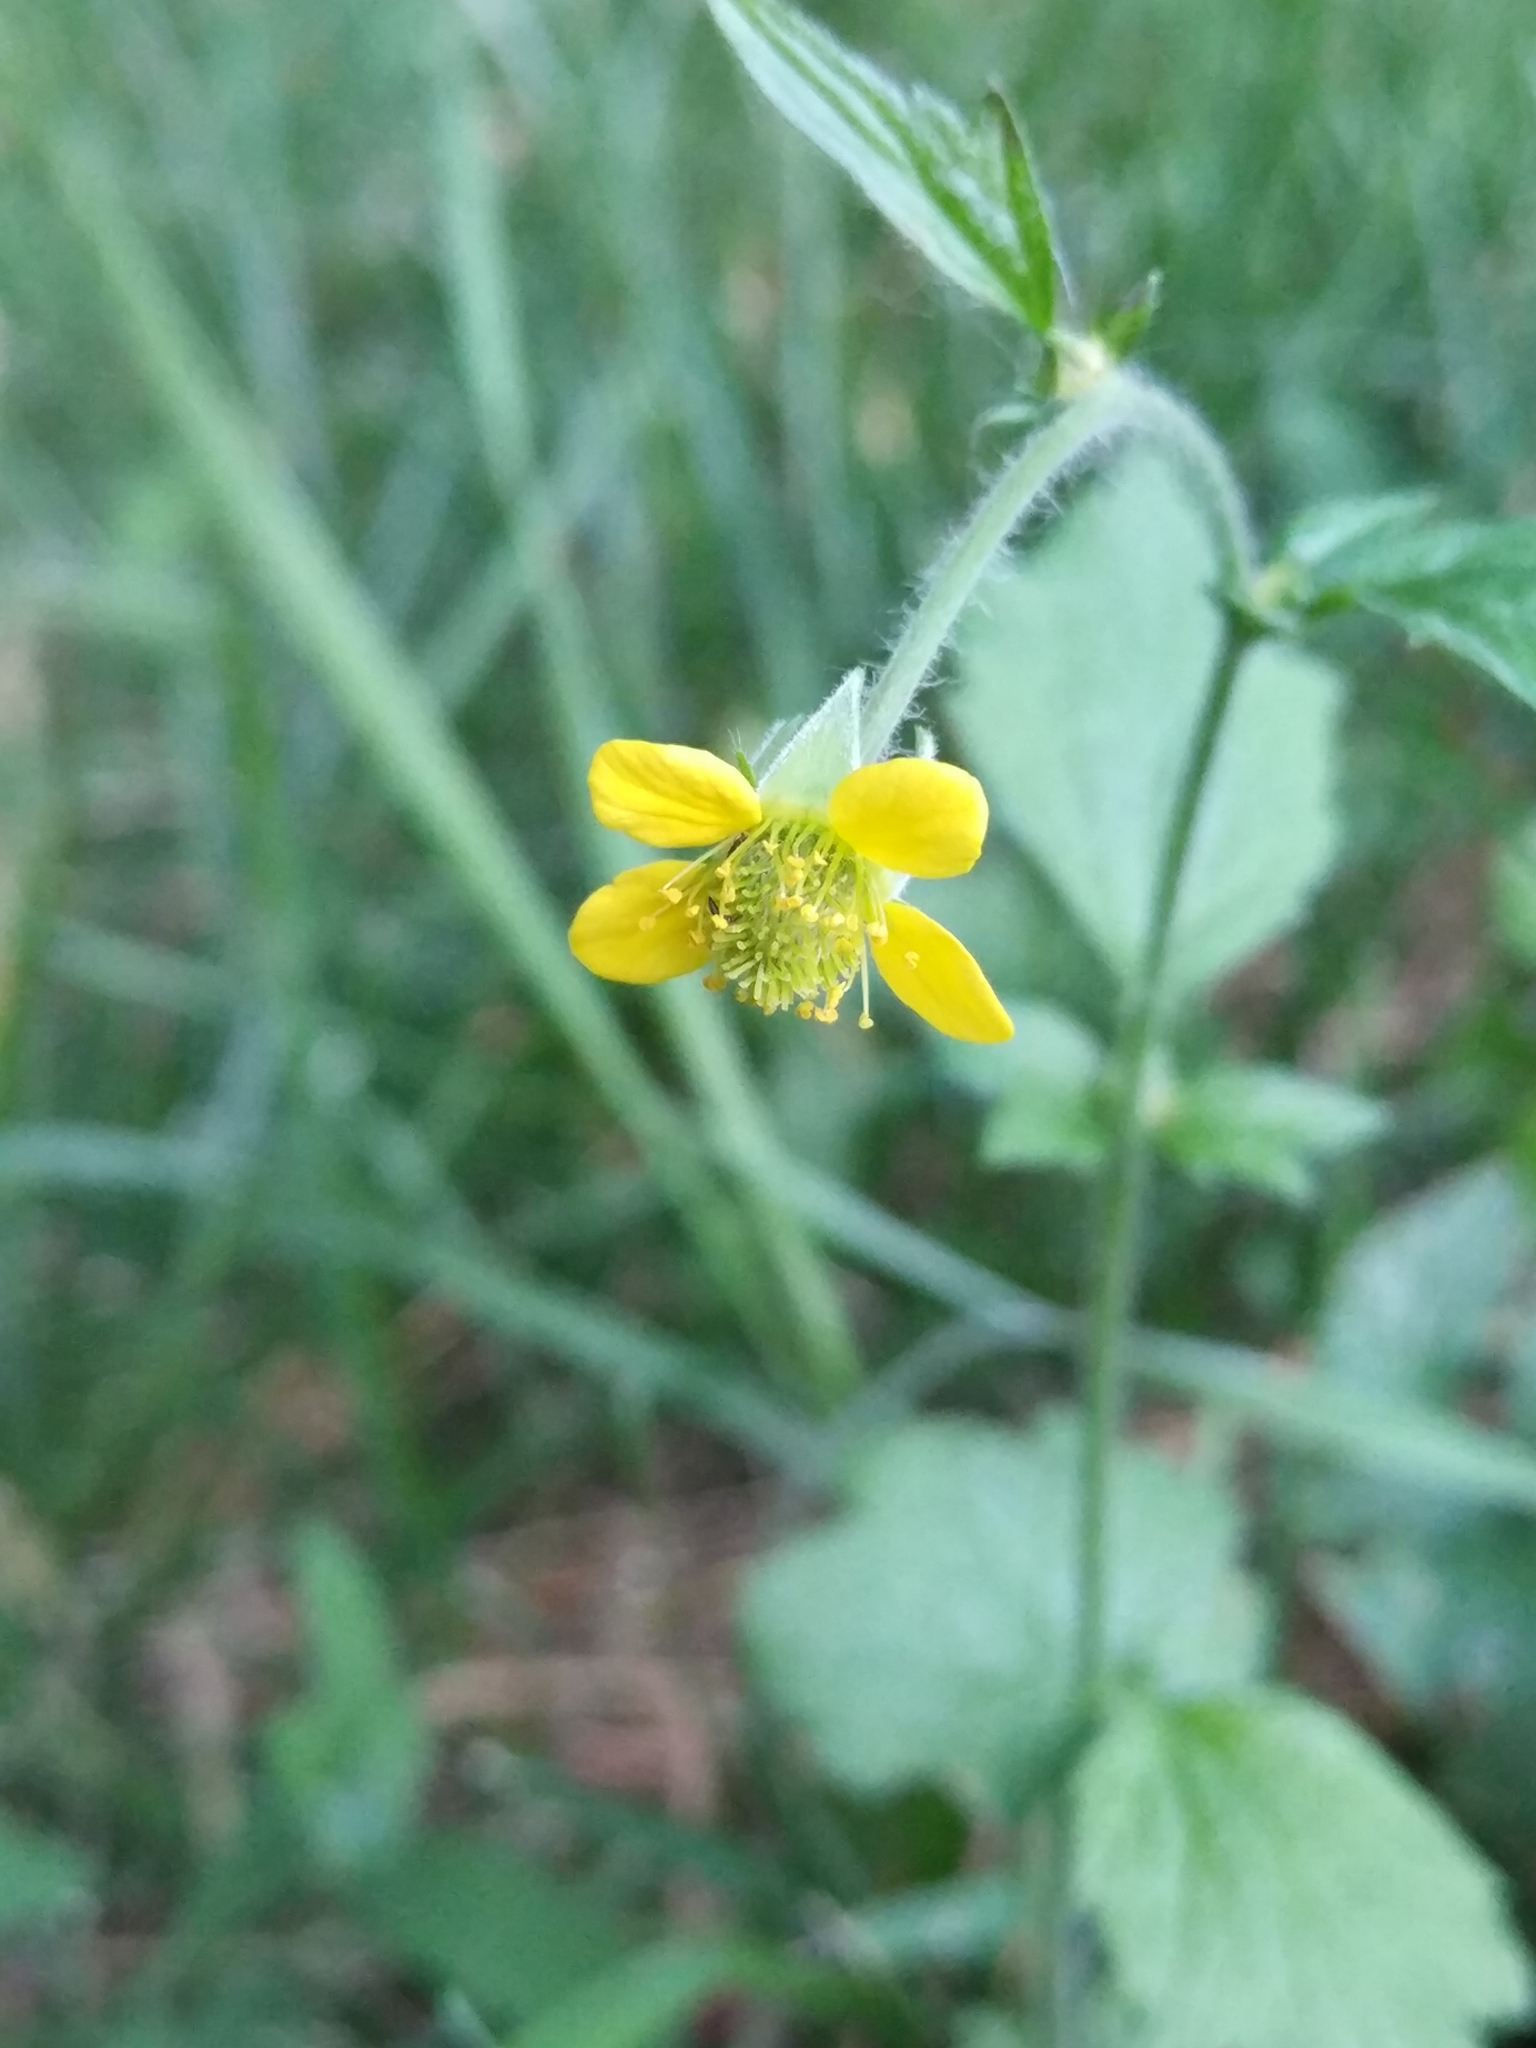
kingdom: Plantae
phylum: Tracheophyta
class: Magnoliopsida
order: Rosales
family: Rosaceae
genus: Geum
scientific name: Geum urbanum
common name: Wood avens
